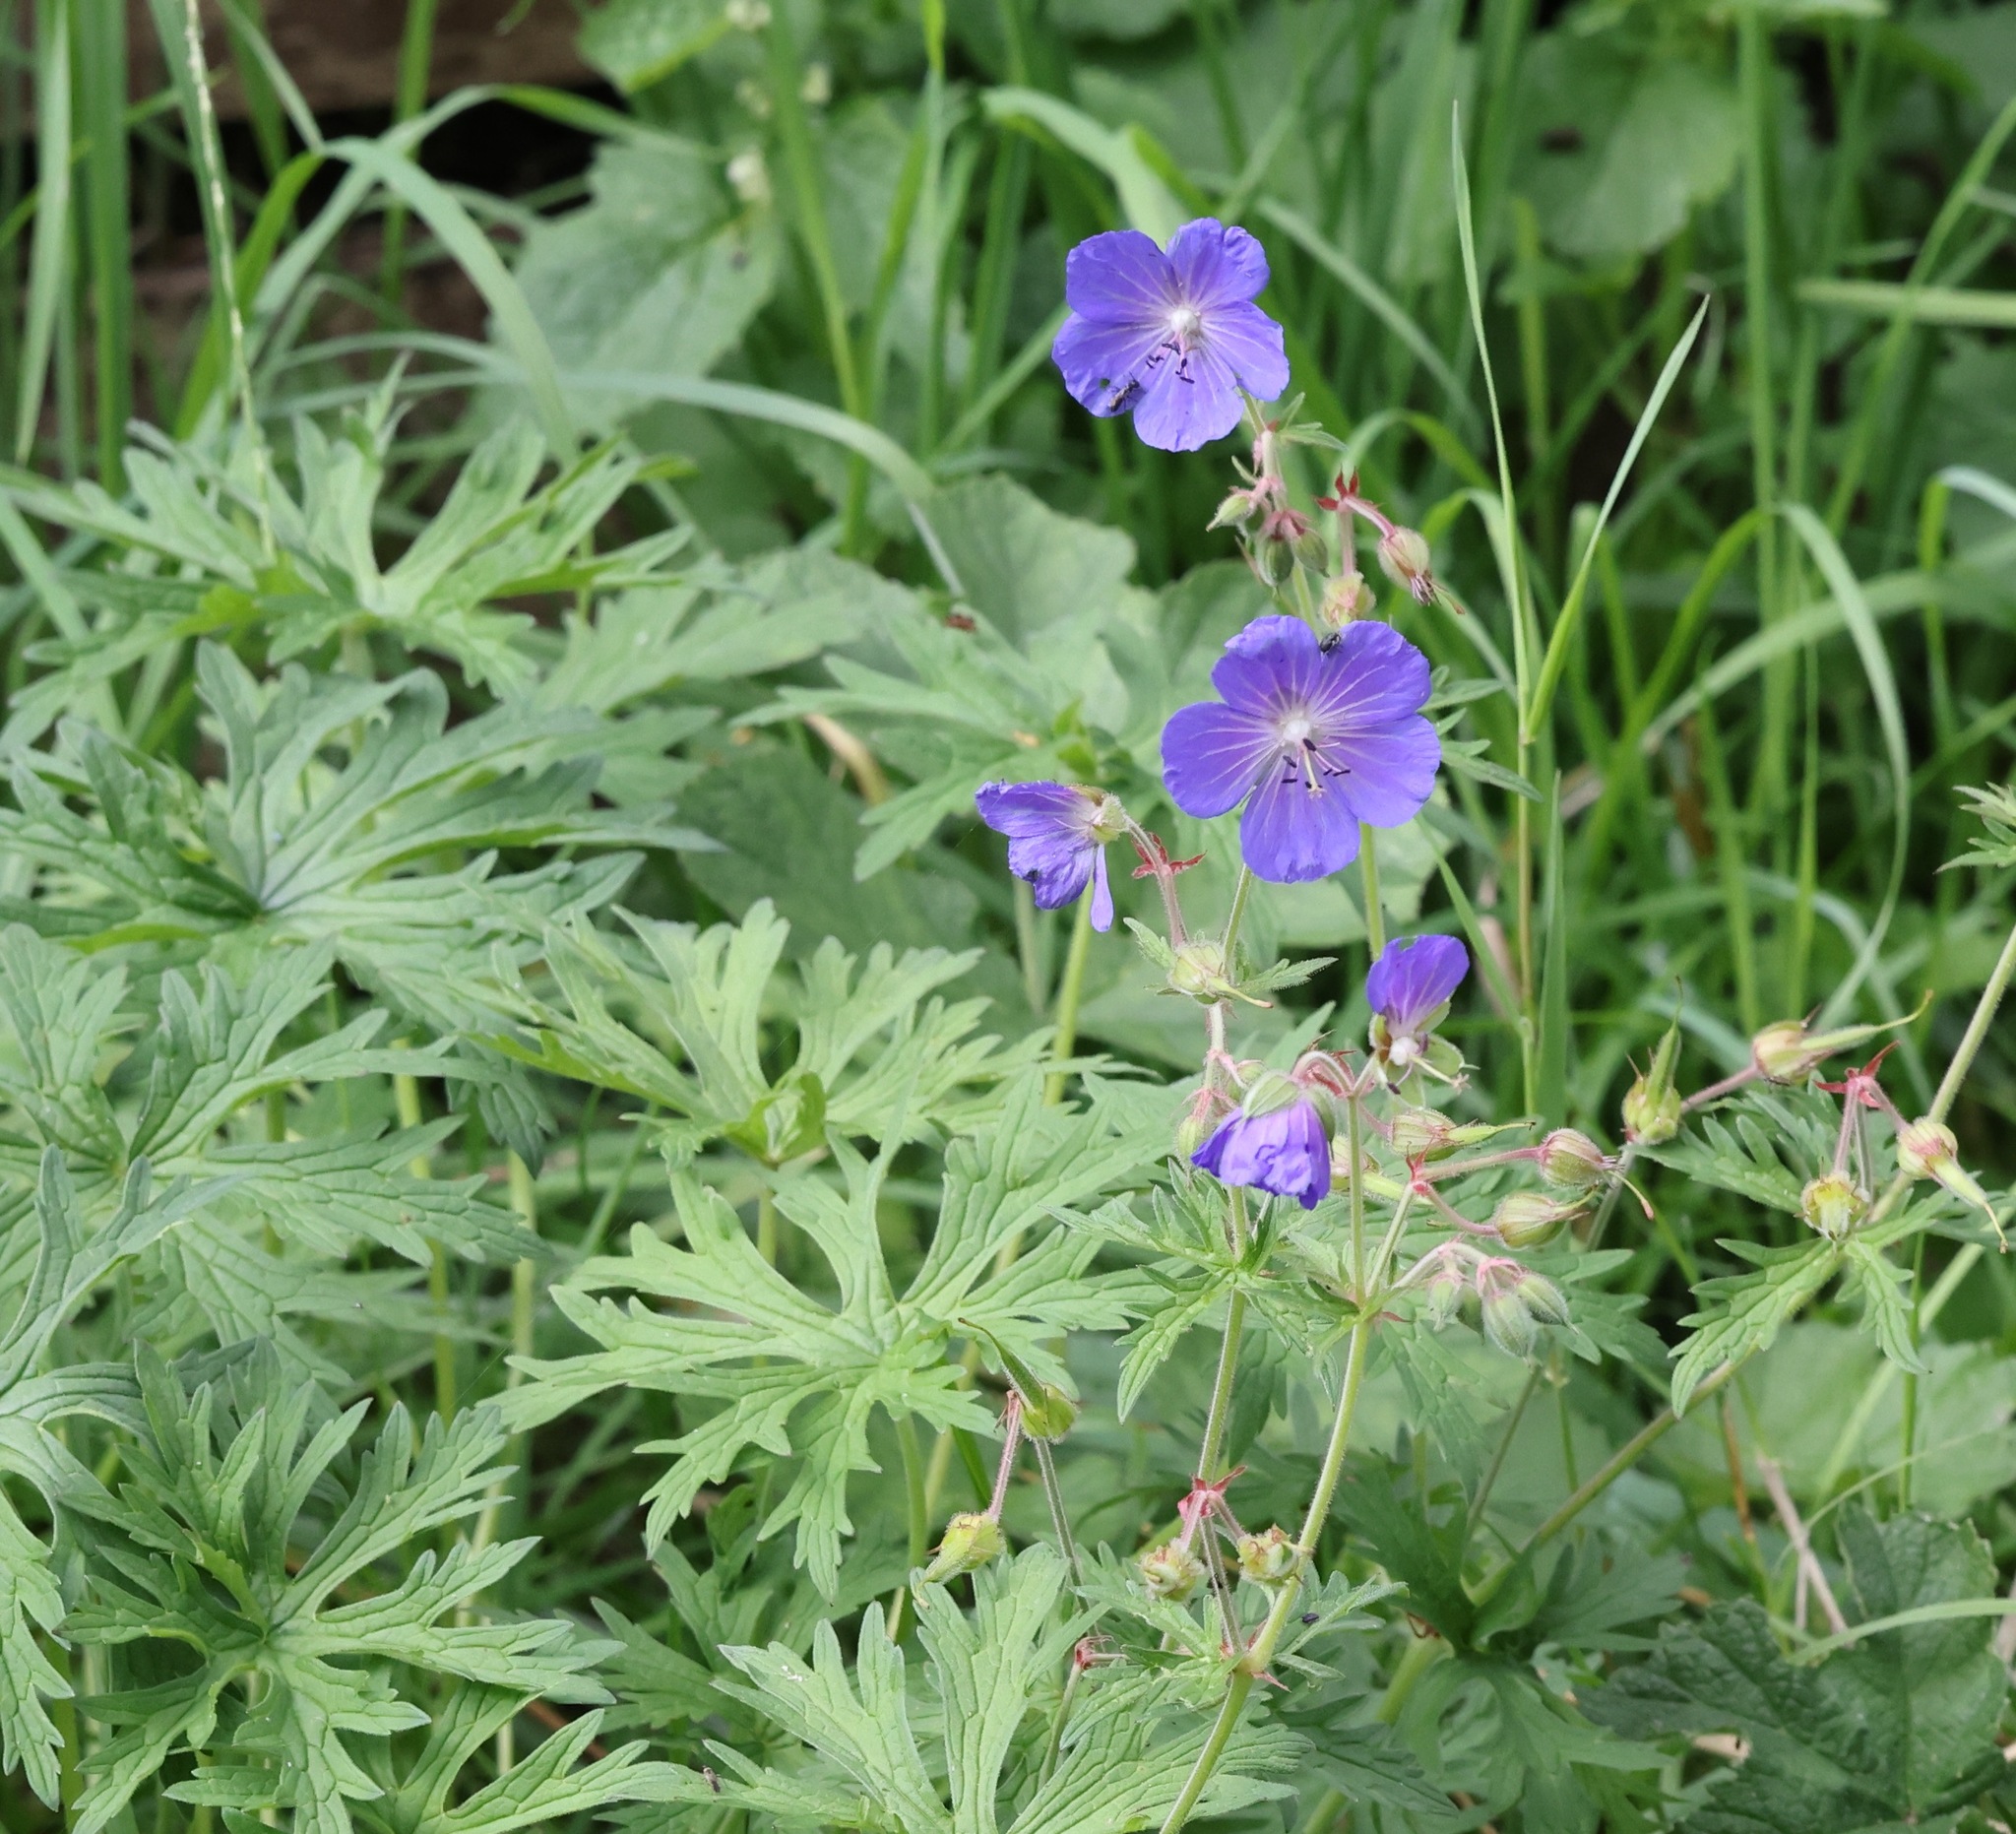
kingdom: Plantae
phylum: Tracheophyta
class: Magnoliopsida
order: Geraniales
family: Geraniaceae
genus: Geranium
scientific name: Geranium pratense
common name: Meadow crane's-bill
